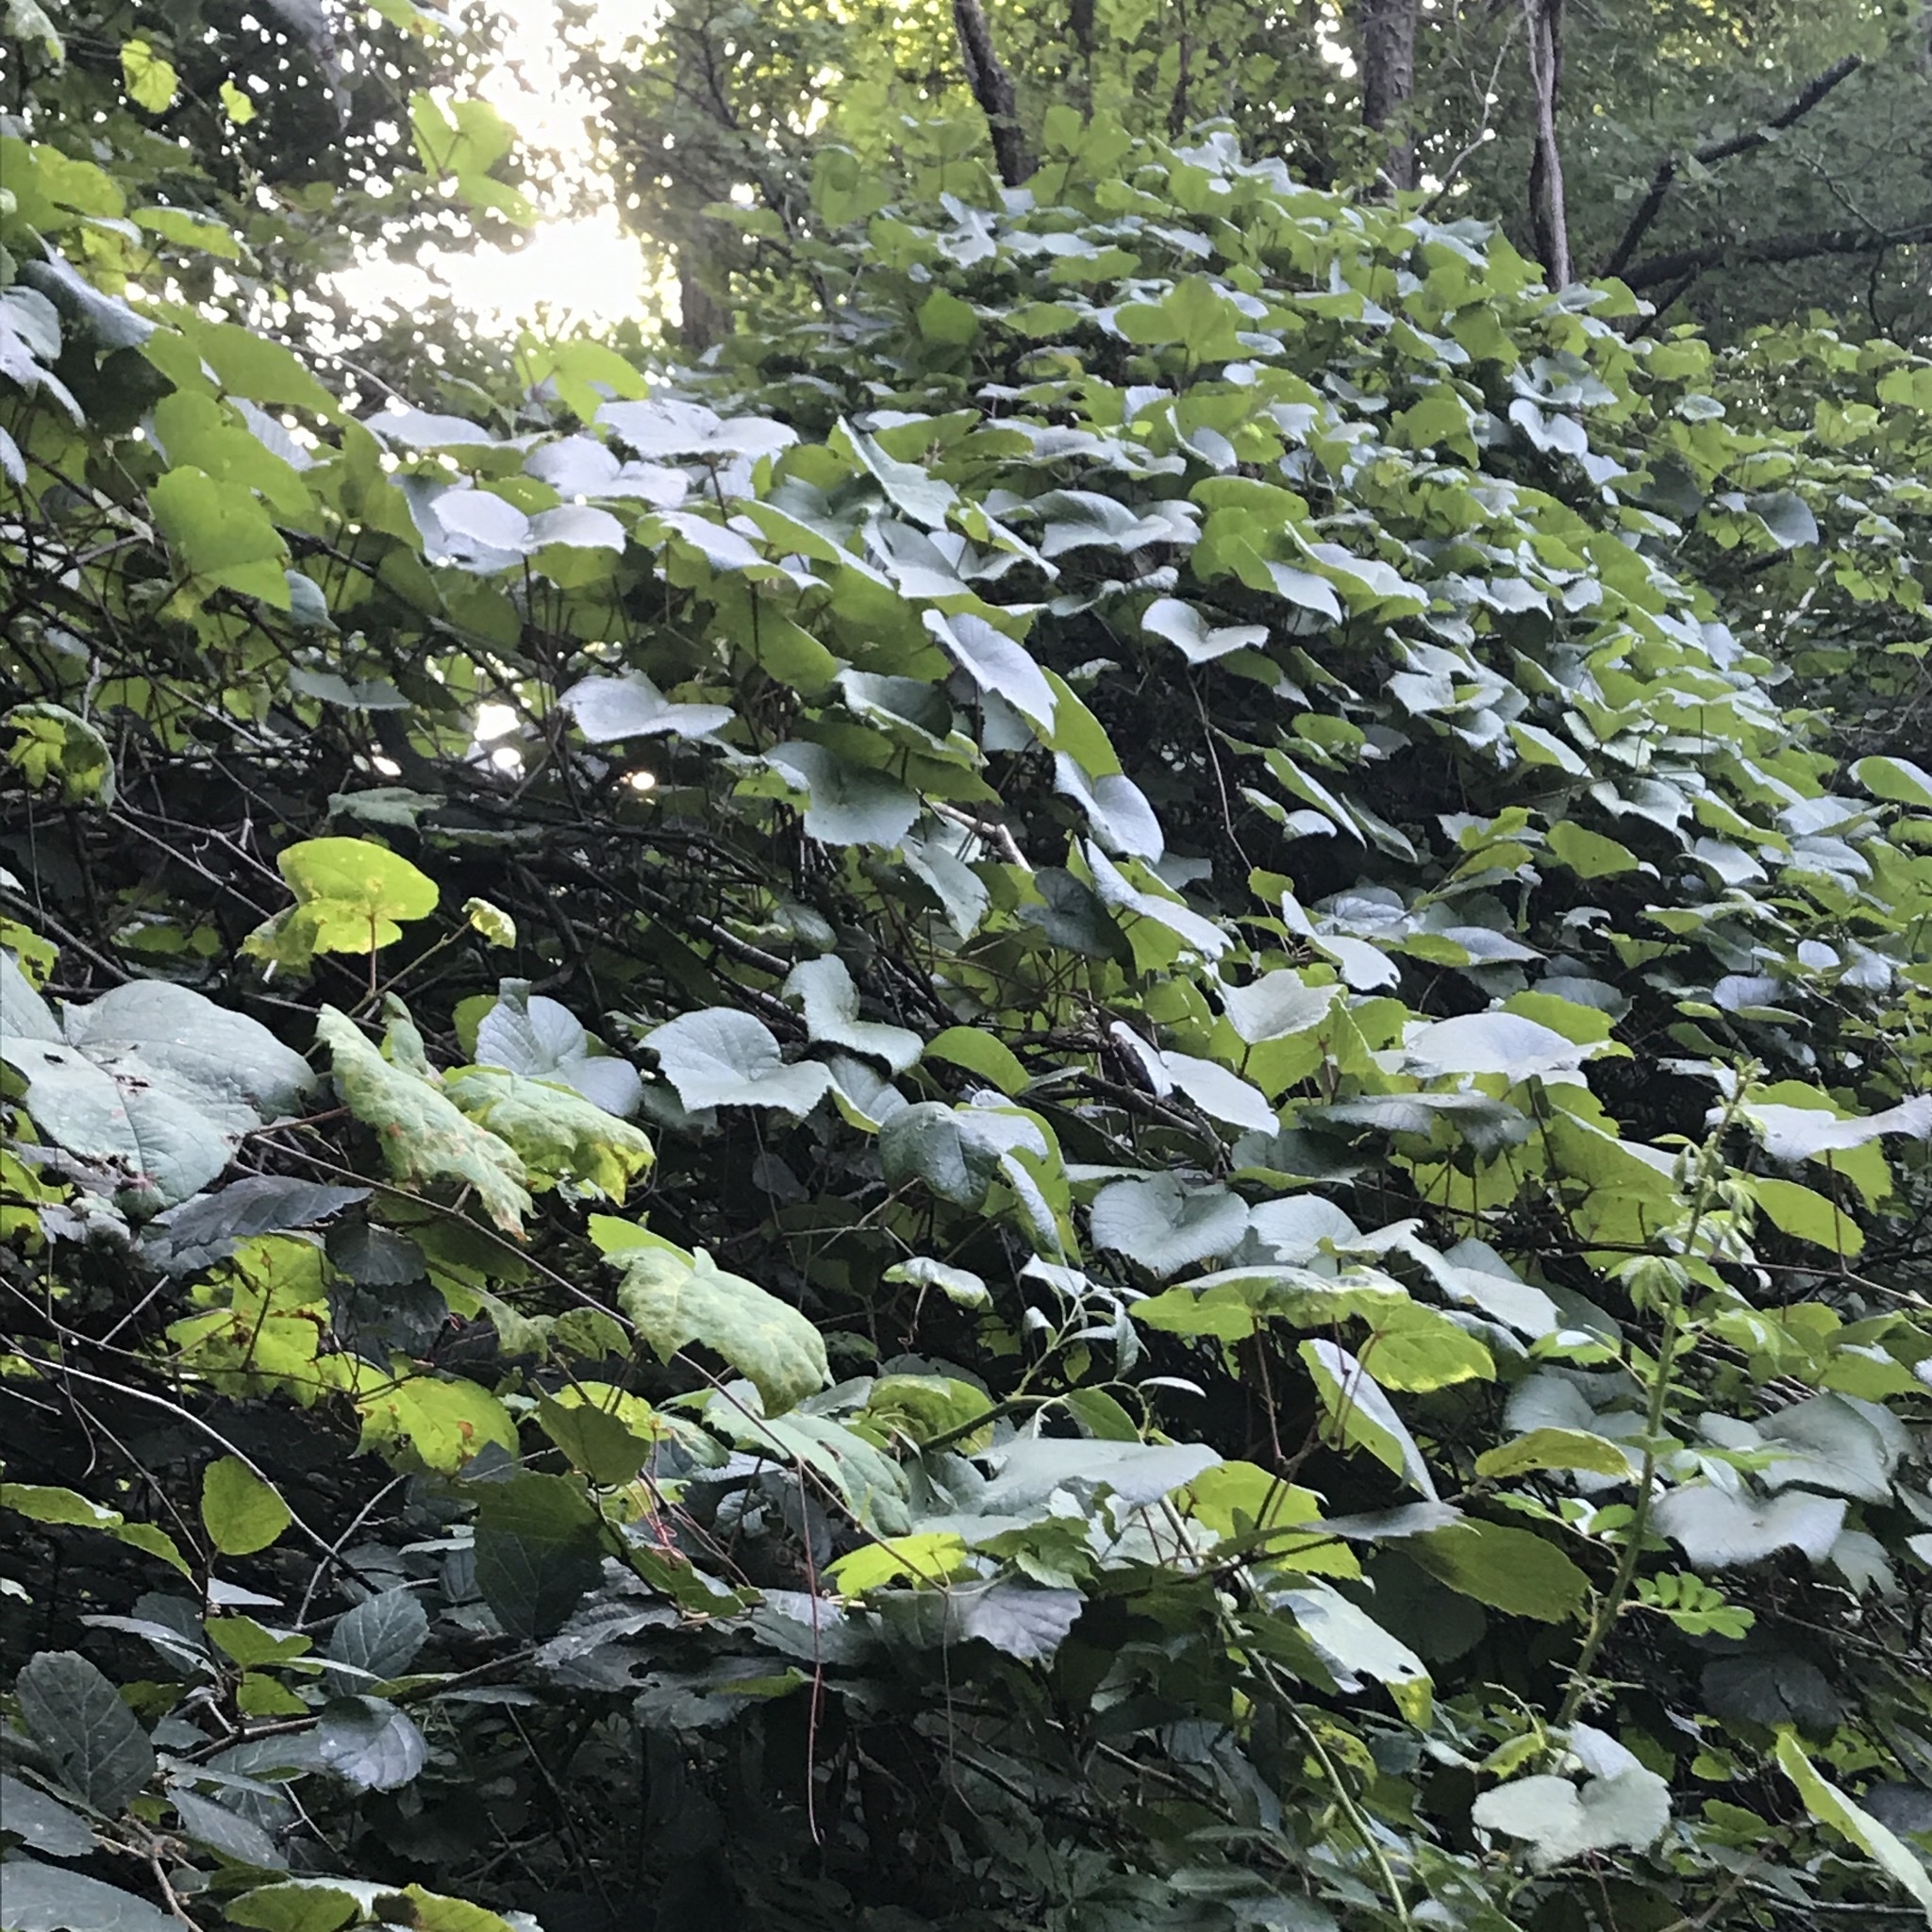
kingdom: Plantae
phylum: Tracheophyta
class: Magnoliopsida
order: Vitales
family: Vitaceae
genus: Vitis
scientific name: Vitis aestivalis
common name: Pigeon grape
